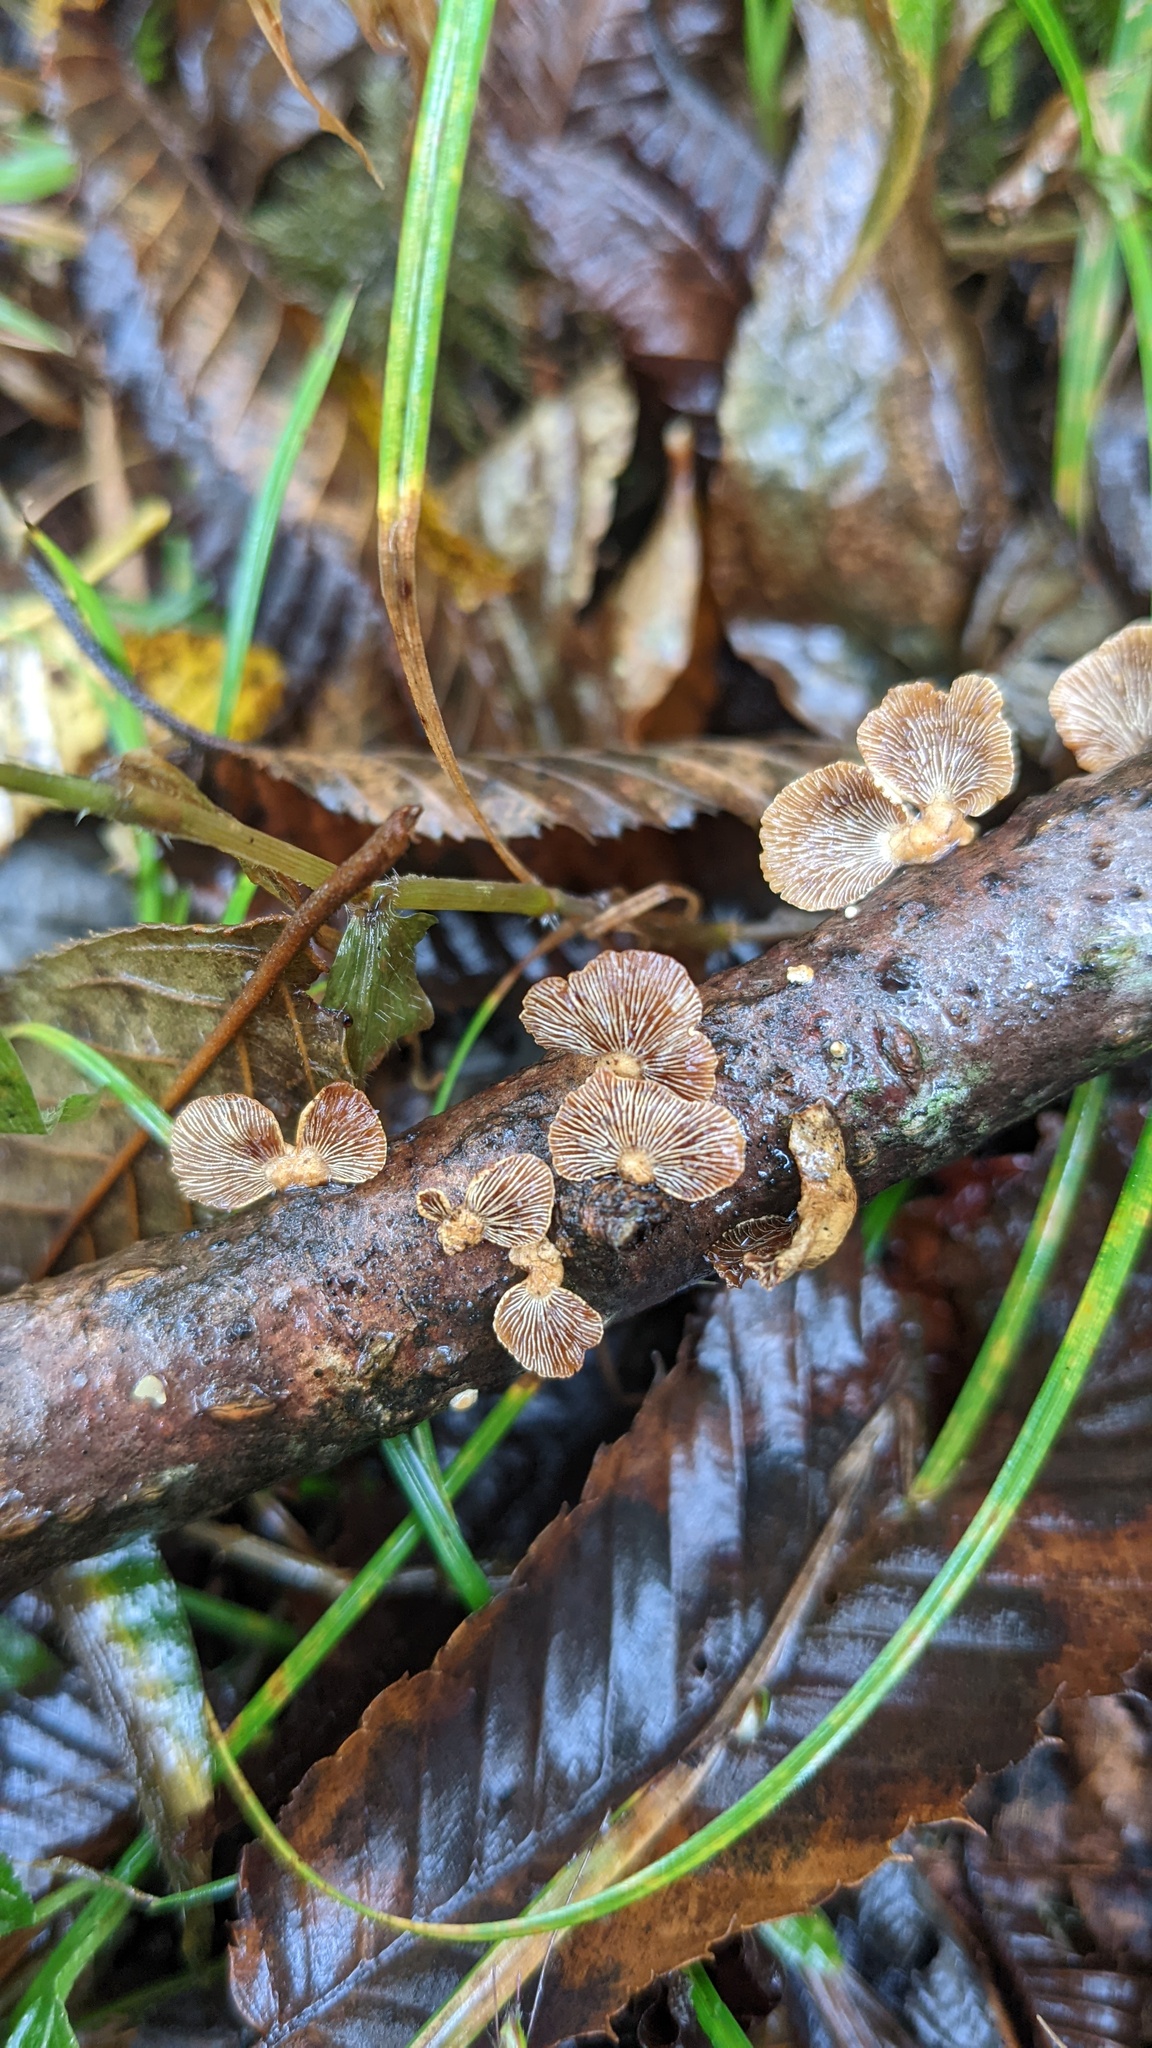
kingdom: Fungi
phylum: Basidiomycota
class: Agaricomycetes
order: Agaricales
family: Mycenaceae
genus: Panellus
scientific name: Panellus stipticus
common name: Bitter oysterling
